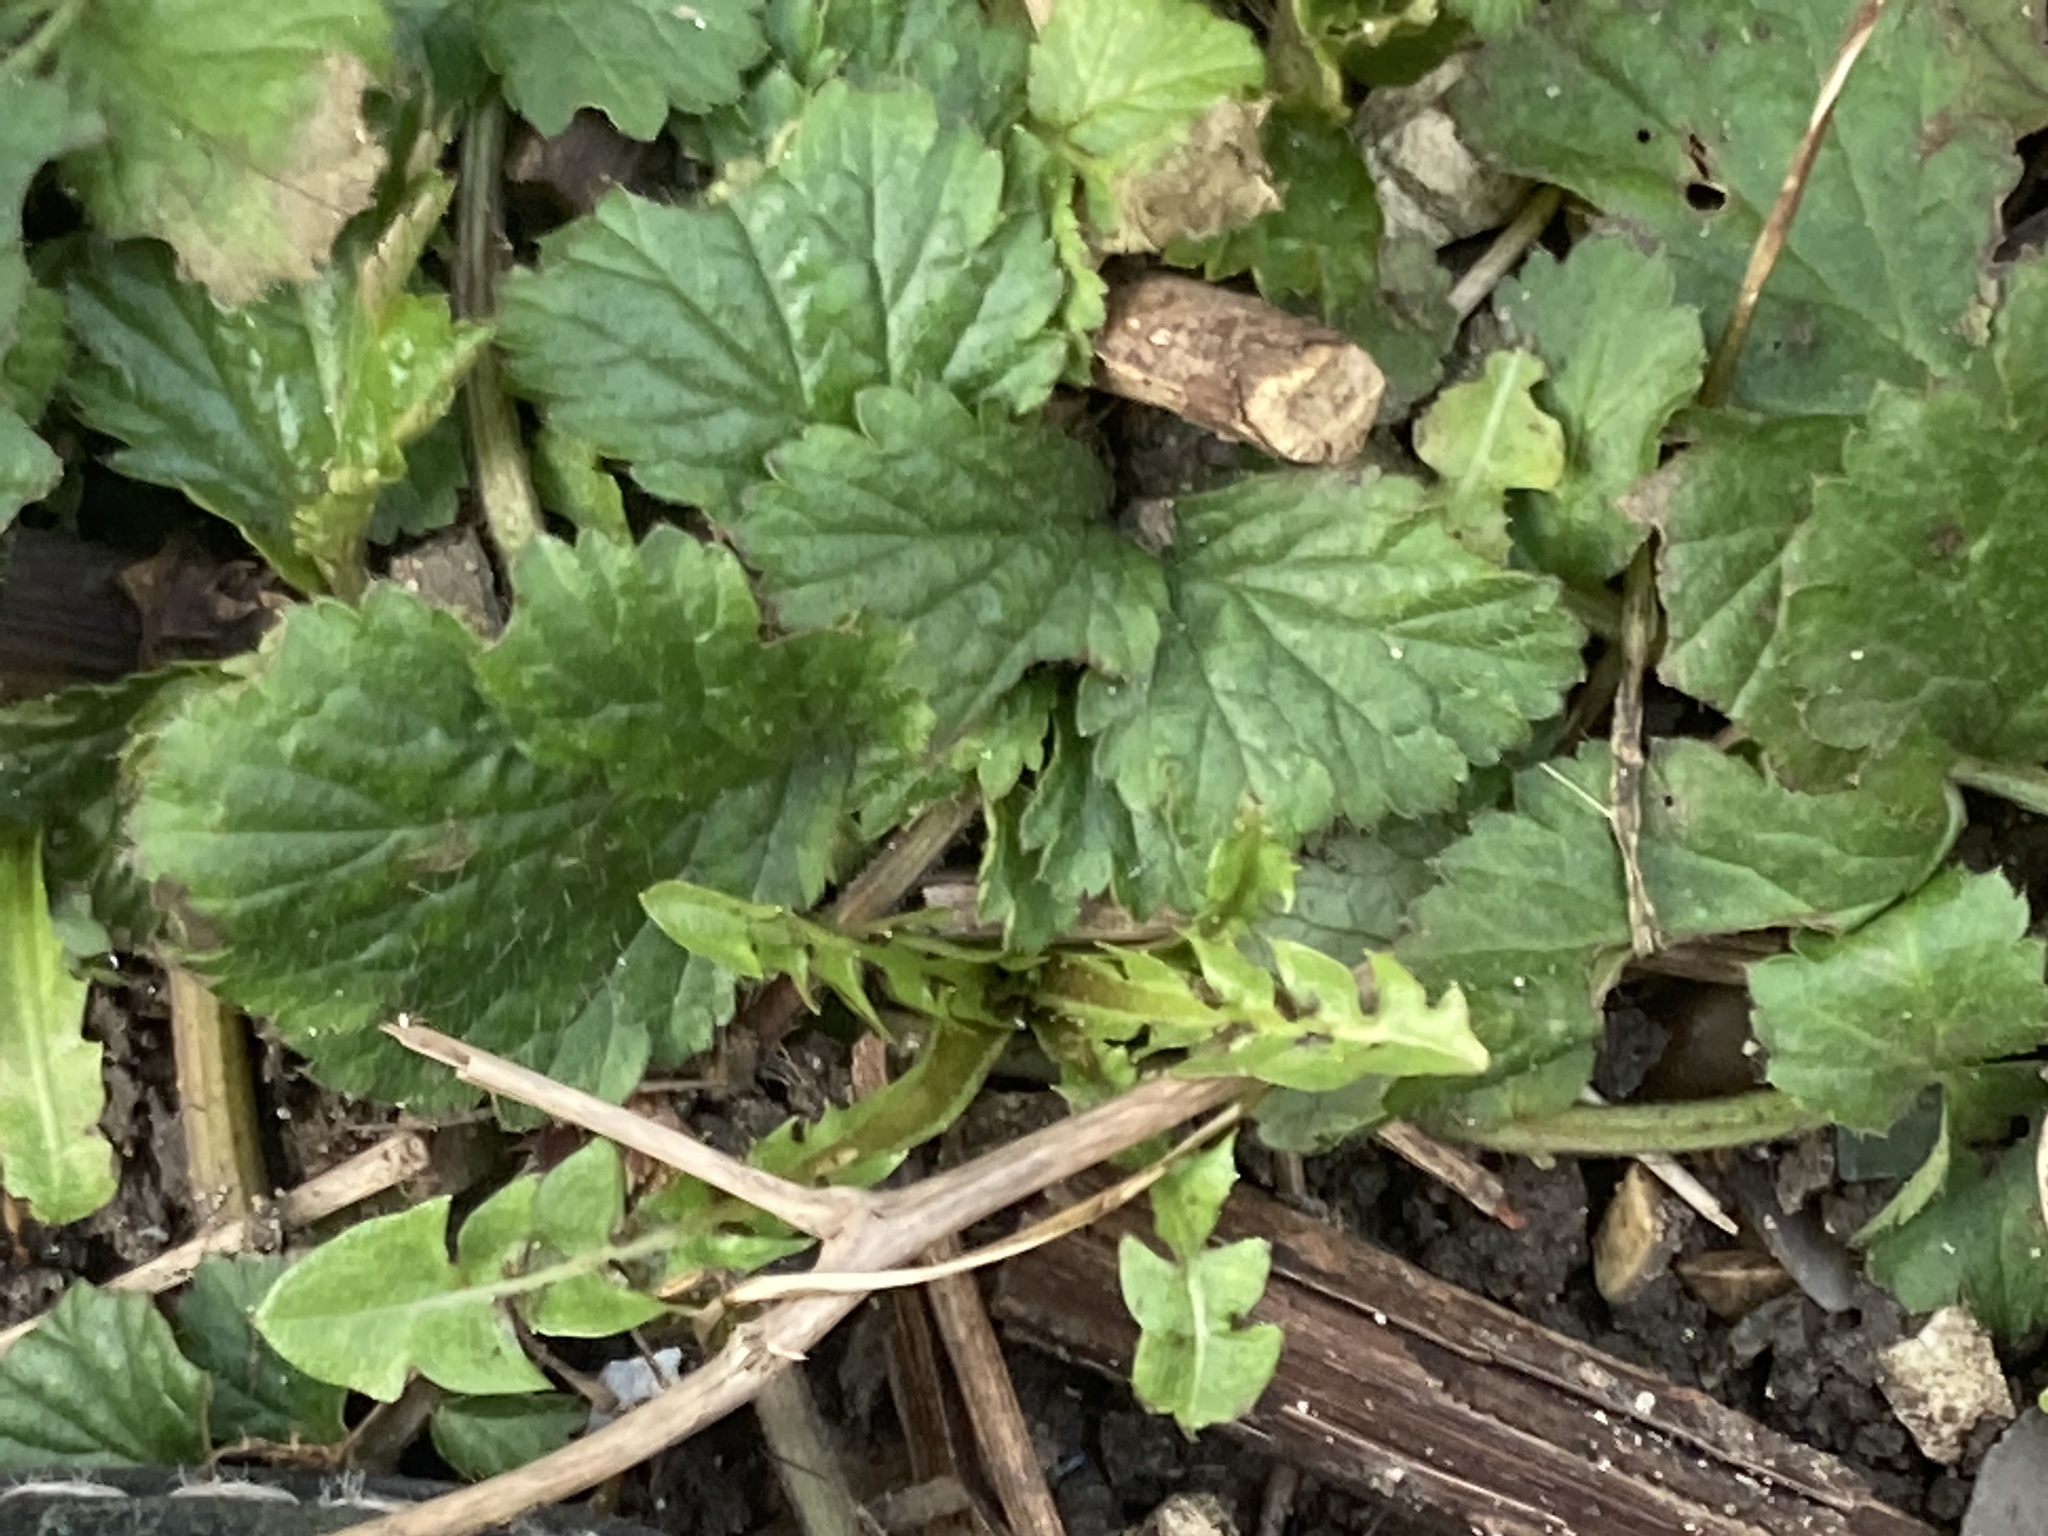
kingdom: Plantae
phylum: Tracheophyta
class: Magnoliopsida
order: Rosales
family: Rosaceae
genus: Geum
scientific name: Geum urbanum
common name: Wood avens
